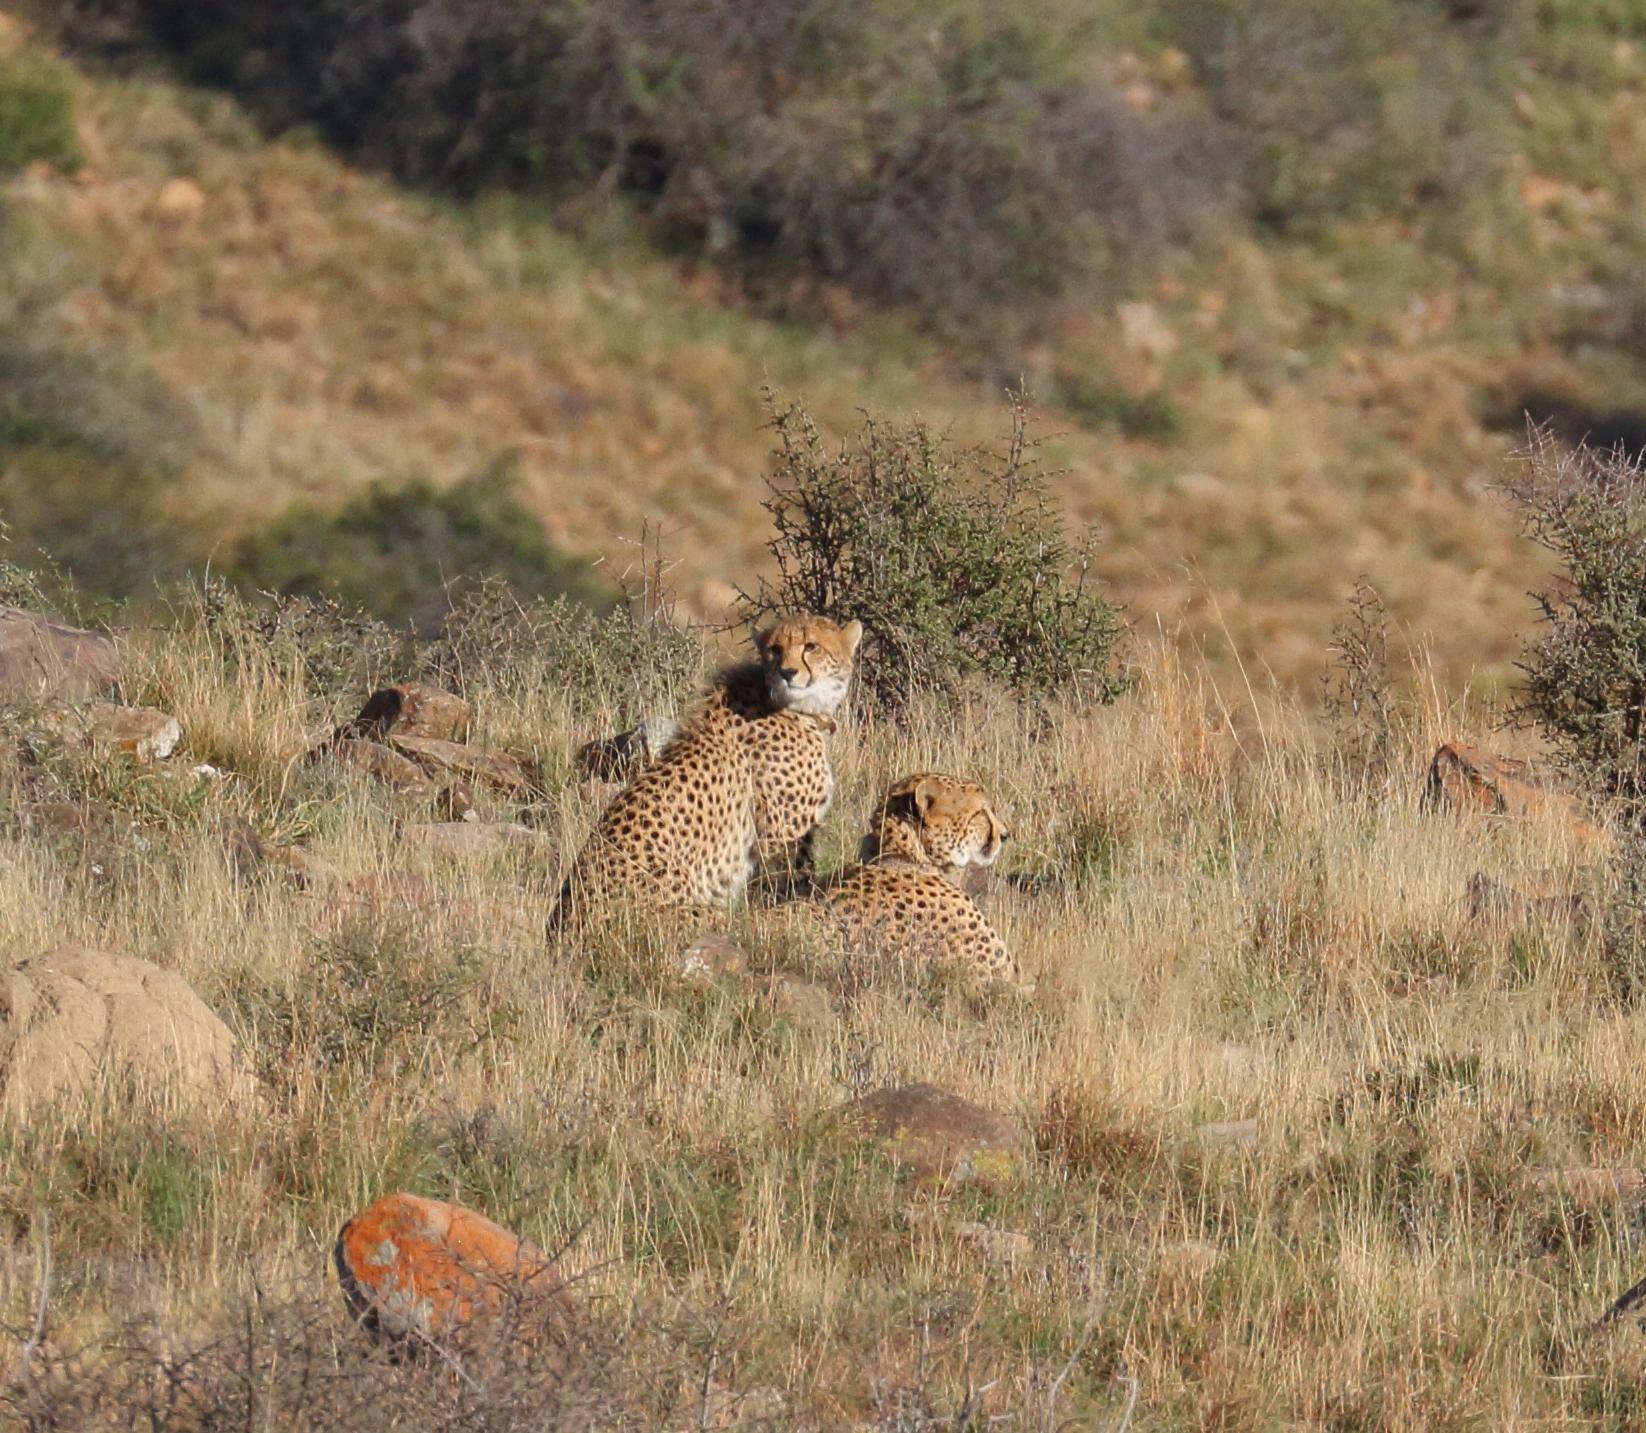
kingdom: Animalia
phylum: Chordata
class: Mammalia
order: Carnivora
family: Felidae
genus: Acinonyx
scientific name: Acinonyx jubatus
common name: Cheetah
